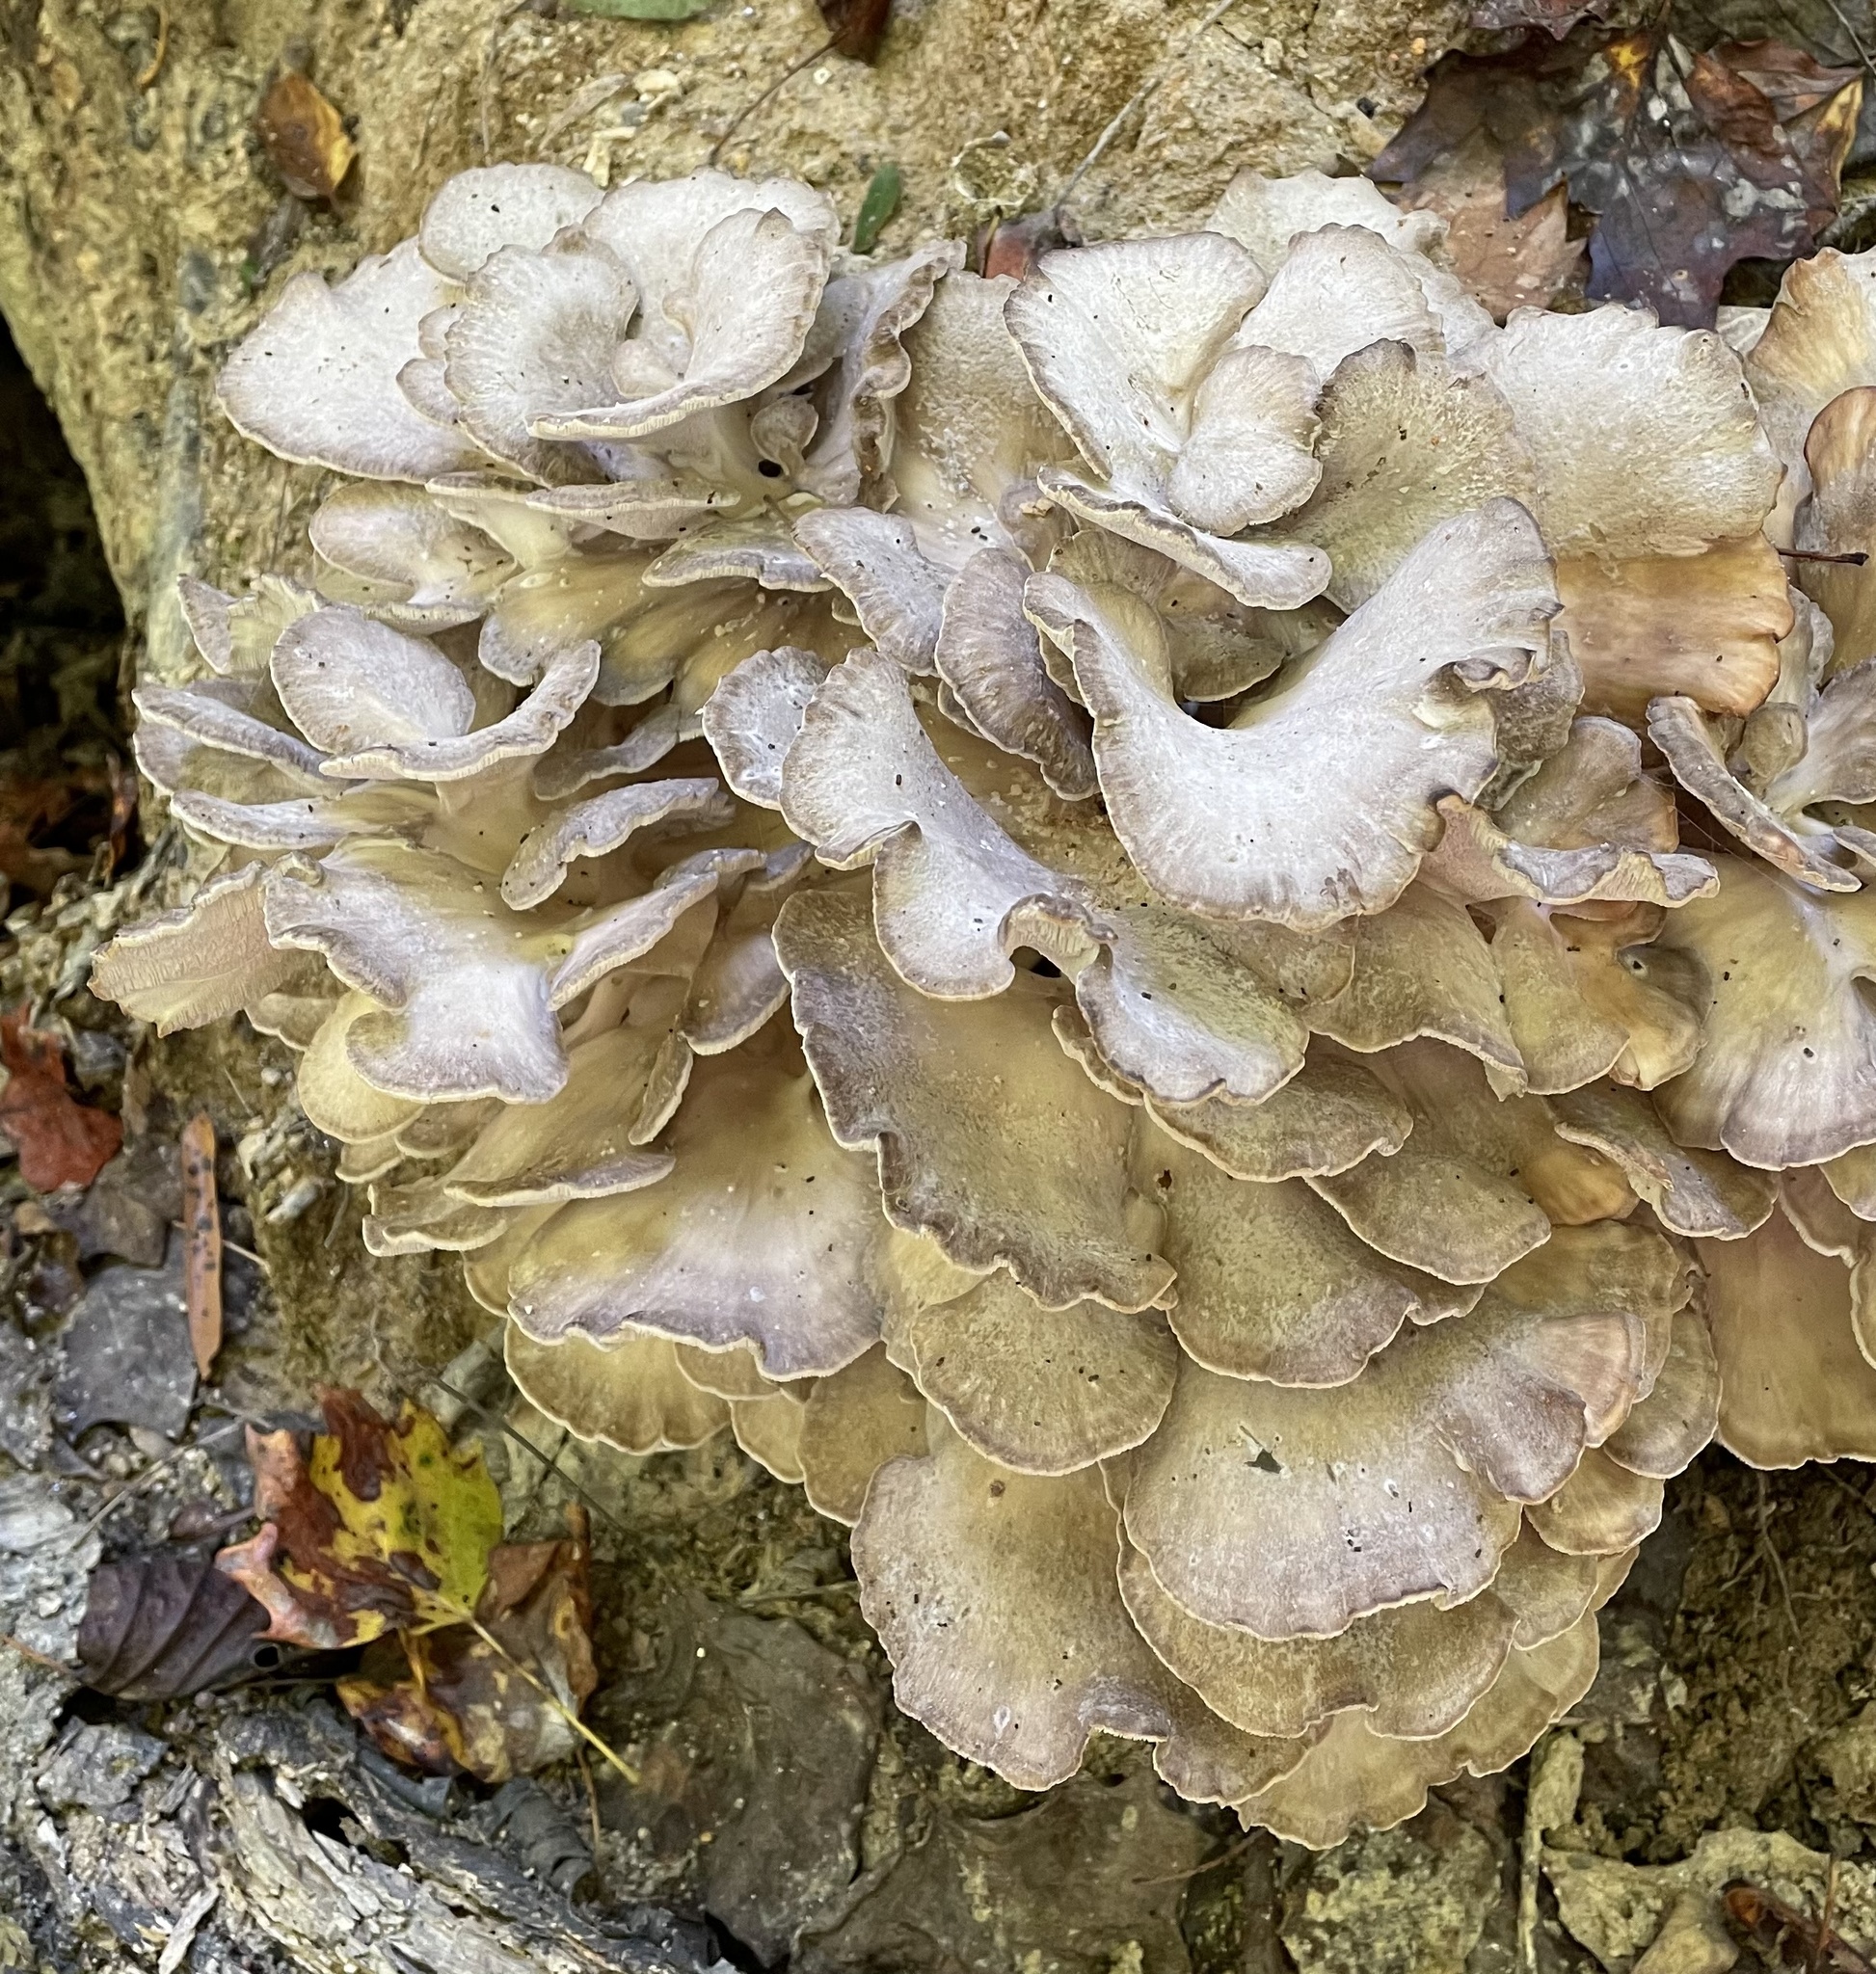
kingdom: Fungi
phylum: Basidiomycota
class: Agaricomycetes
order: Polyporales
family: Grifolaceae
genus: Grifola
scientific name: Grifola frondosa
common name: Hen of the woods
